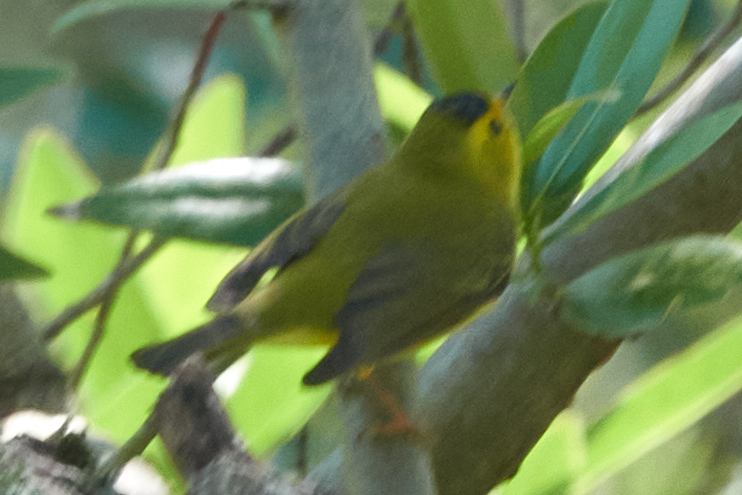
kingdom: Animalia
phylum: Chordata
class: Aves
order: Passeriformes
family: Parulidae
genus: Cardellina
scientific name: Cardellina pusilla
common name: Wilson's warbler
